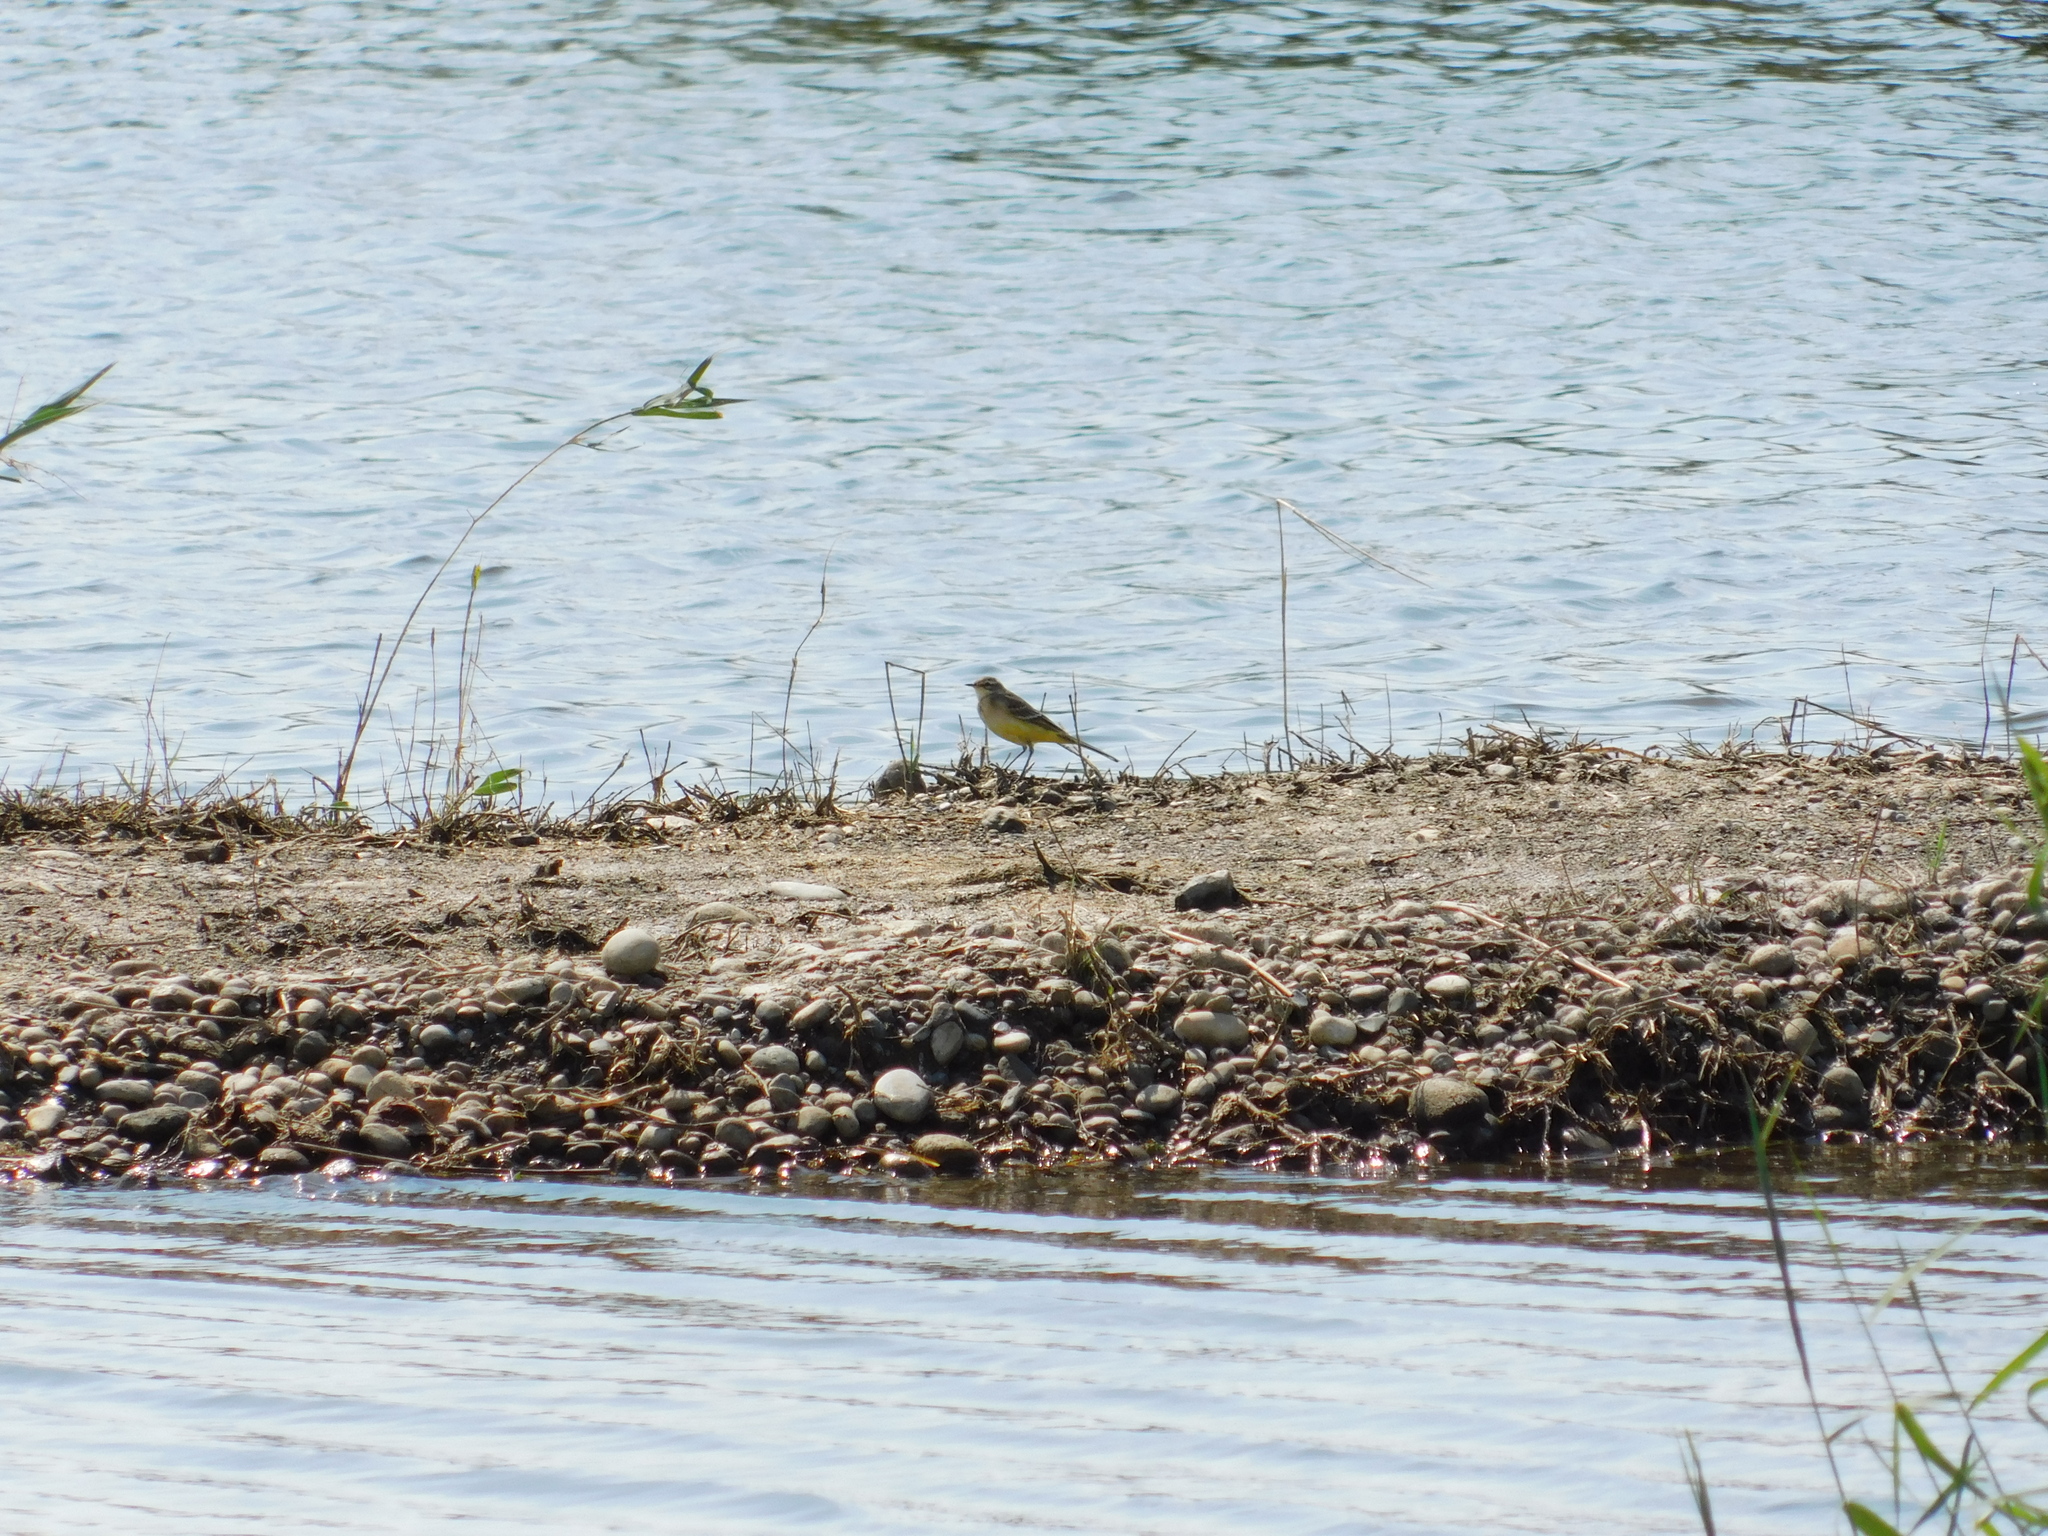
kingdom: Animalia
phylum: Chordata
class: Aves
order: Passeriformes
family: Motacillidae
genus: Motacilla
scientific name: Motacilla flava
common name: Western yellow wagtail
